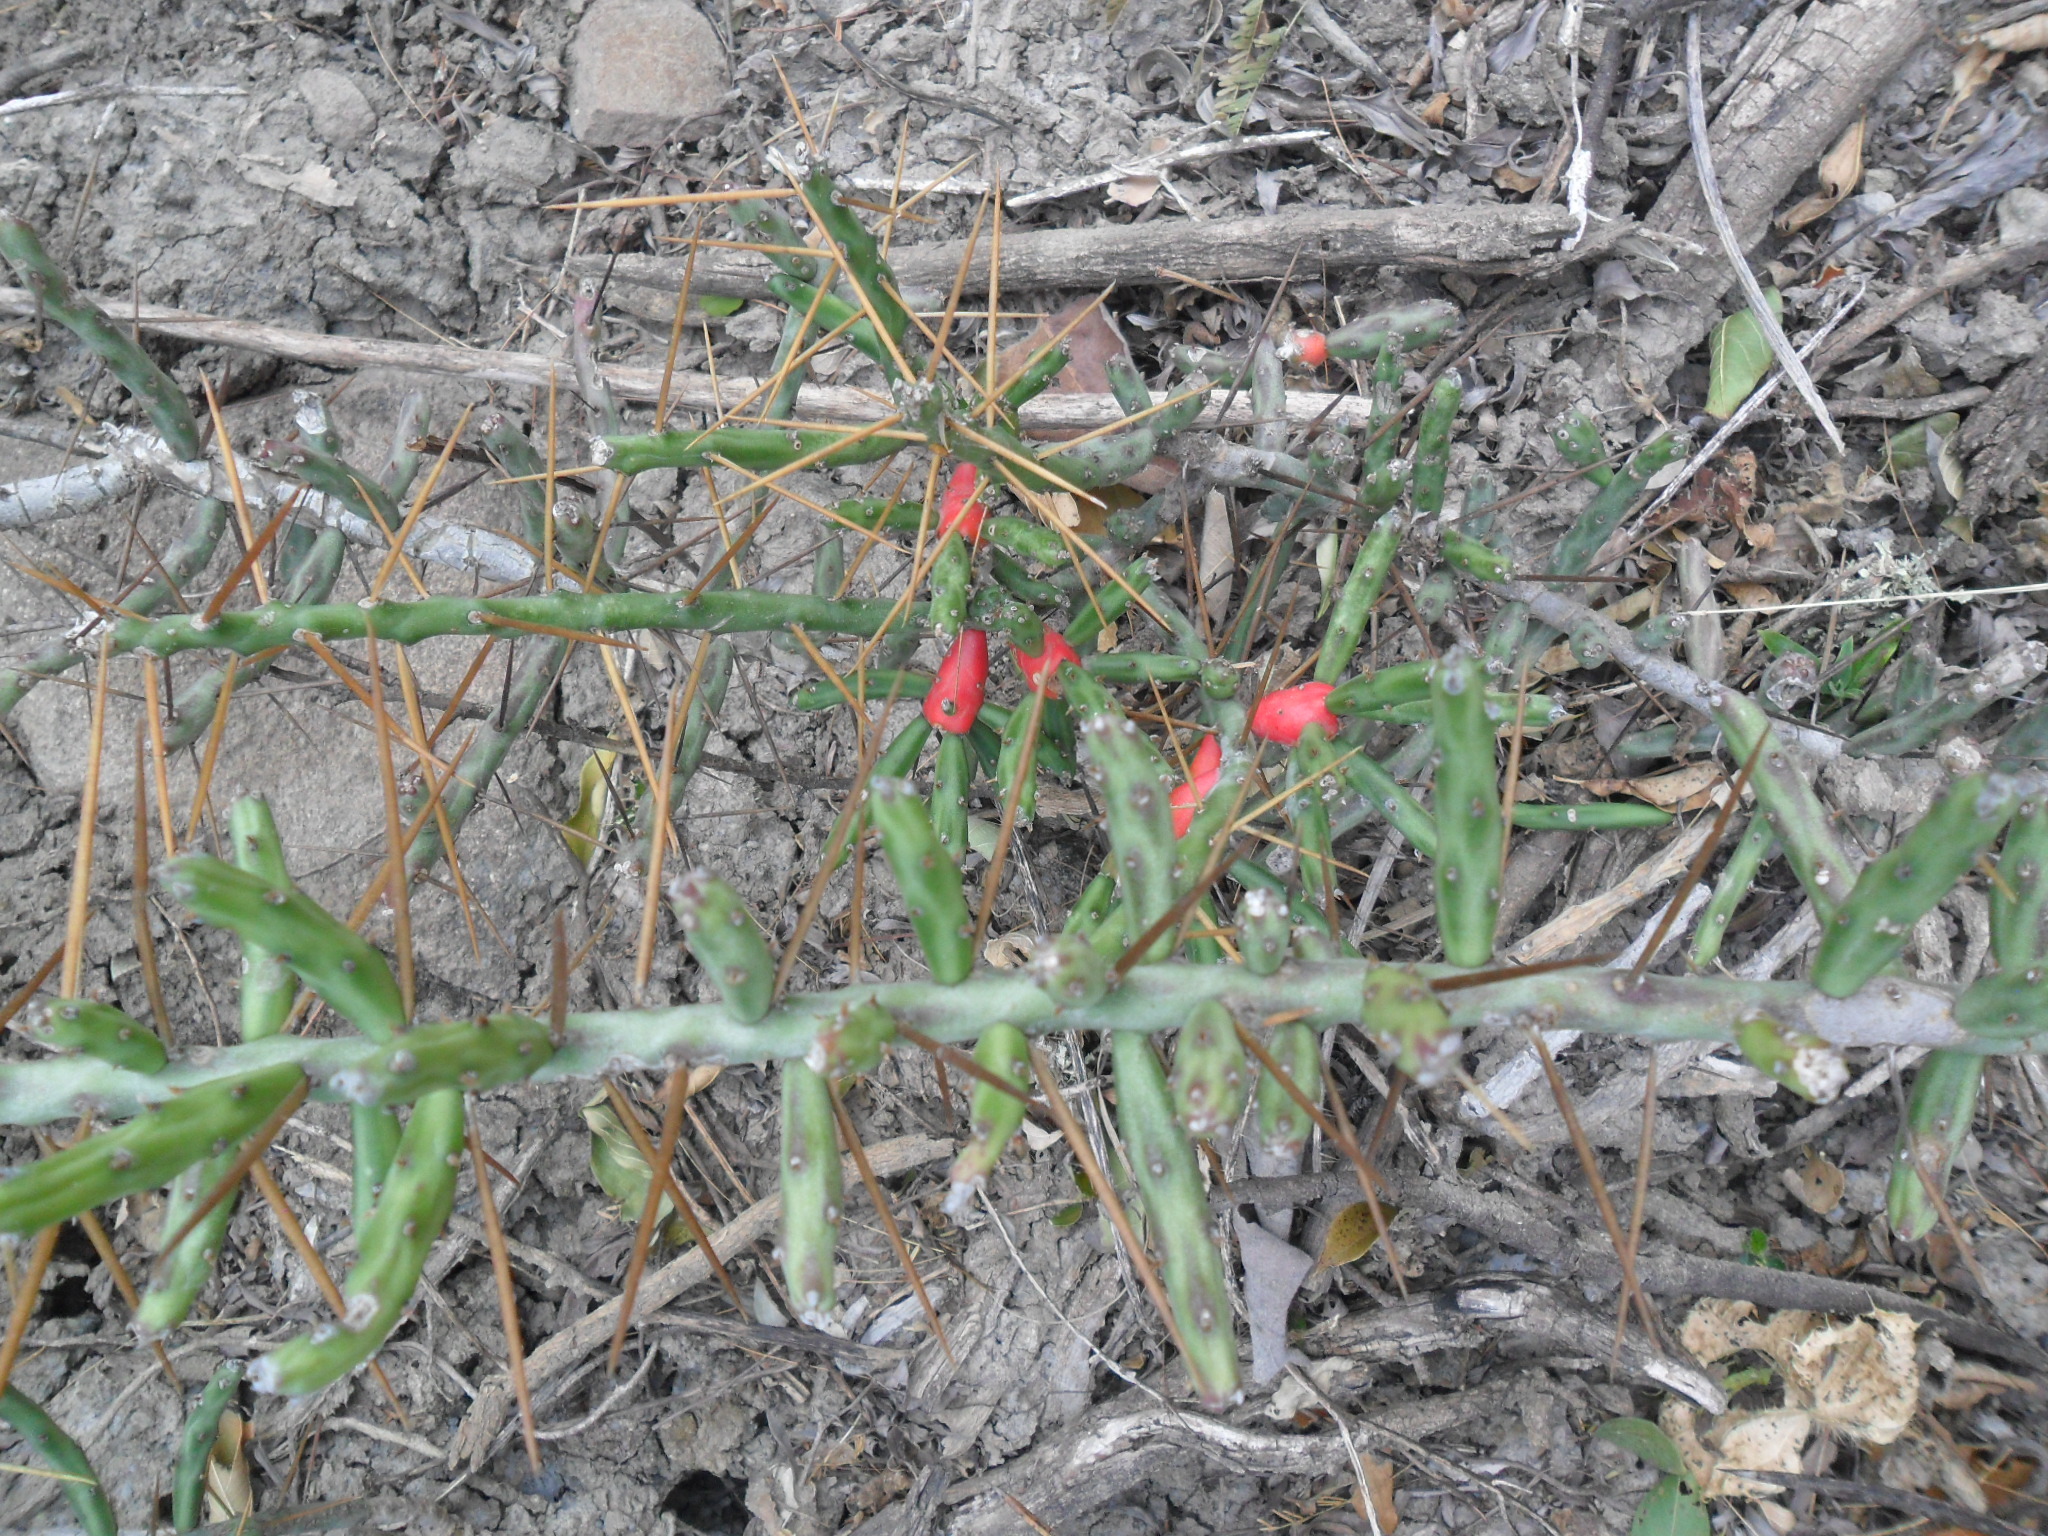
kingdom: Plantae
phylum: Tracheophyta
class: Magnoliopsida
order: Caryophyllales
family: Cactaceae
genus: Cylindropuntia
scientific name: Cylindropuntia leptocaulis
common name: Christmas cactus
